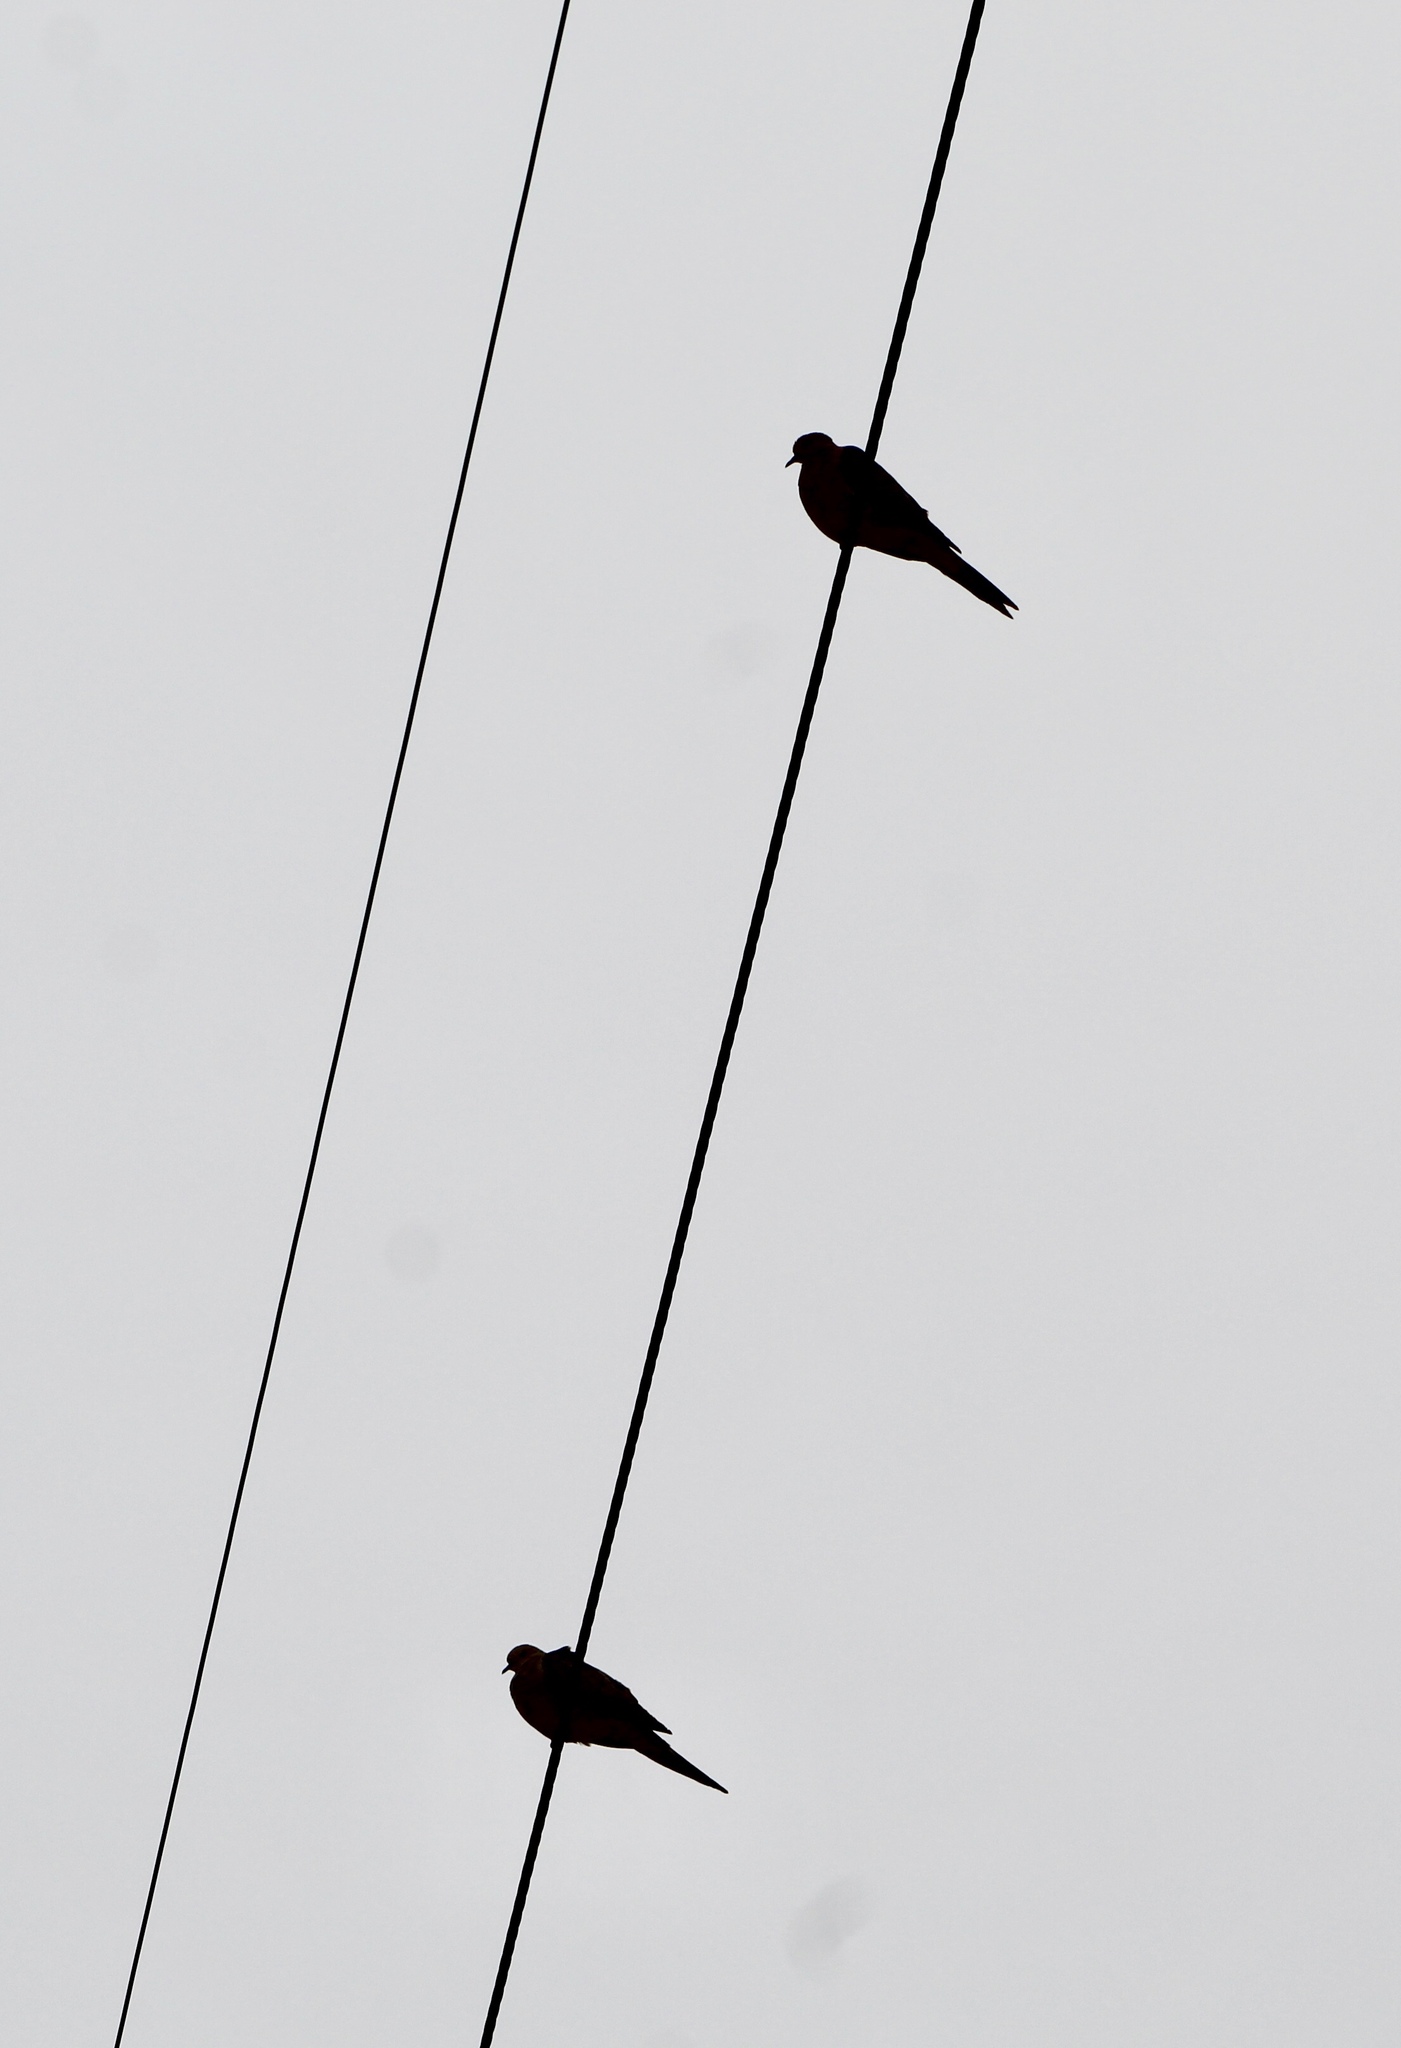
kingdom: Animalia
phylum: Chordata
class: Aves
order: Columbiformes
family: Columbidae
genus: Zenaida
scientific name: Zenaida macroura
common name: Mourning dove
